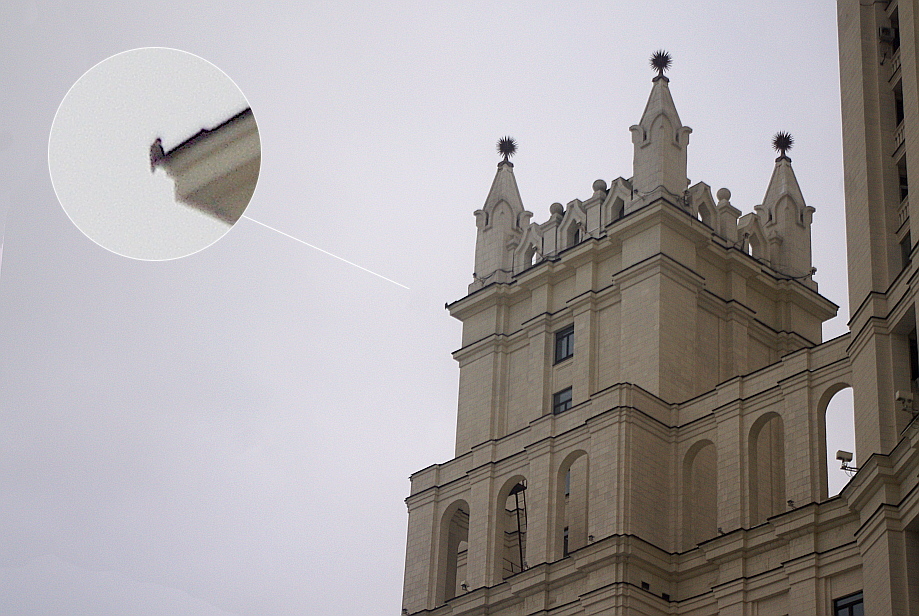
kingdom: Animalia
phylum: Chordata
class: Aves
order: Falconiformes
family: Falconidae
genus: Falco
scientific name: Falco peregrinus
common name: Peregrine falcon
